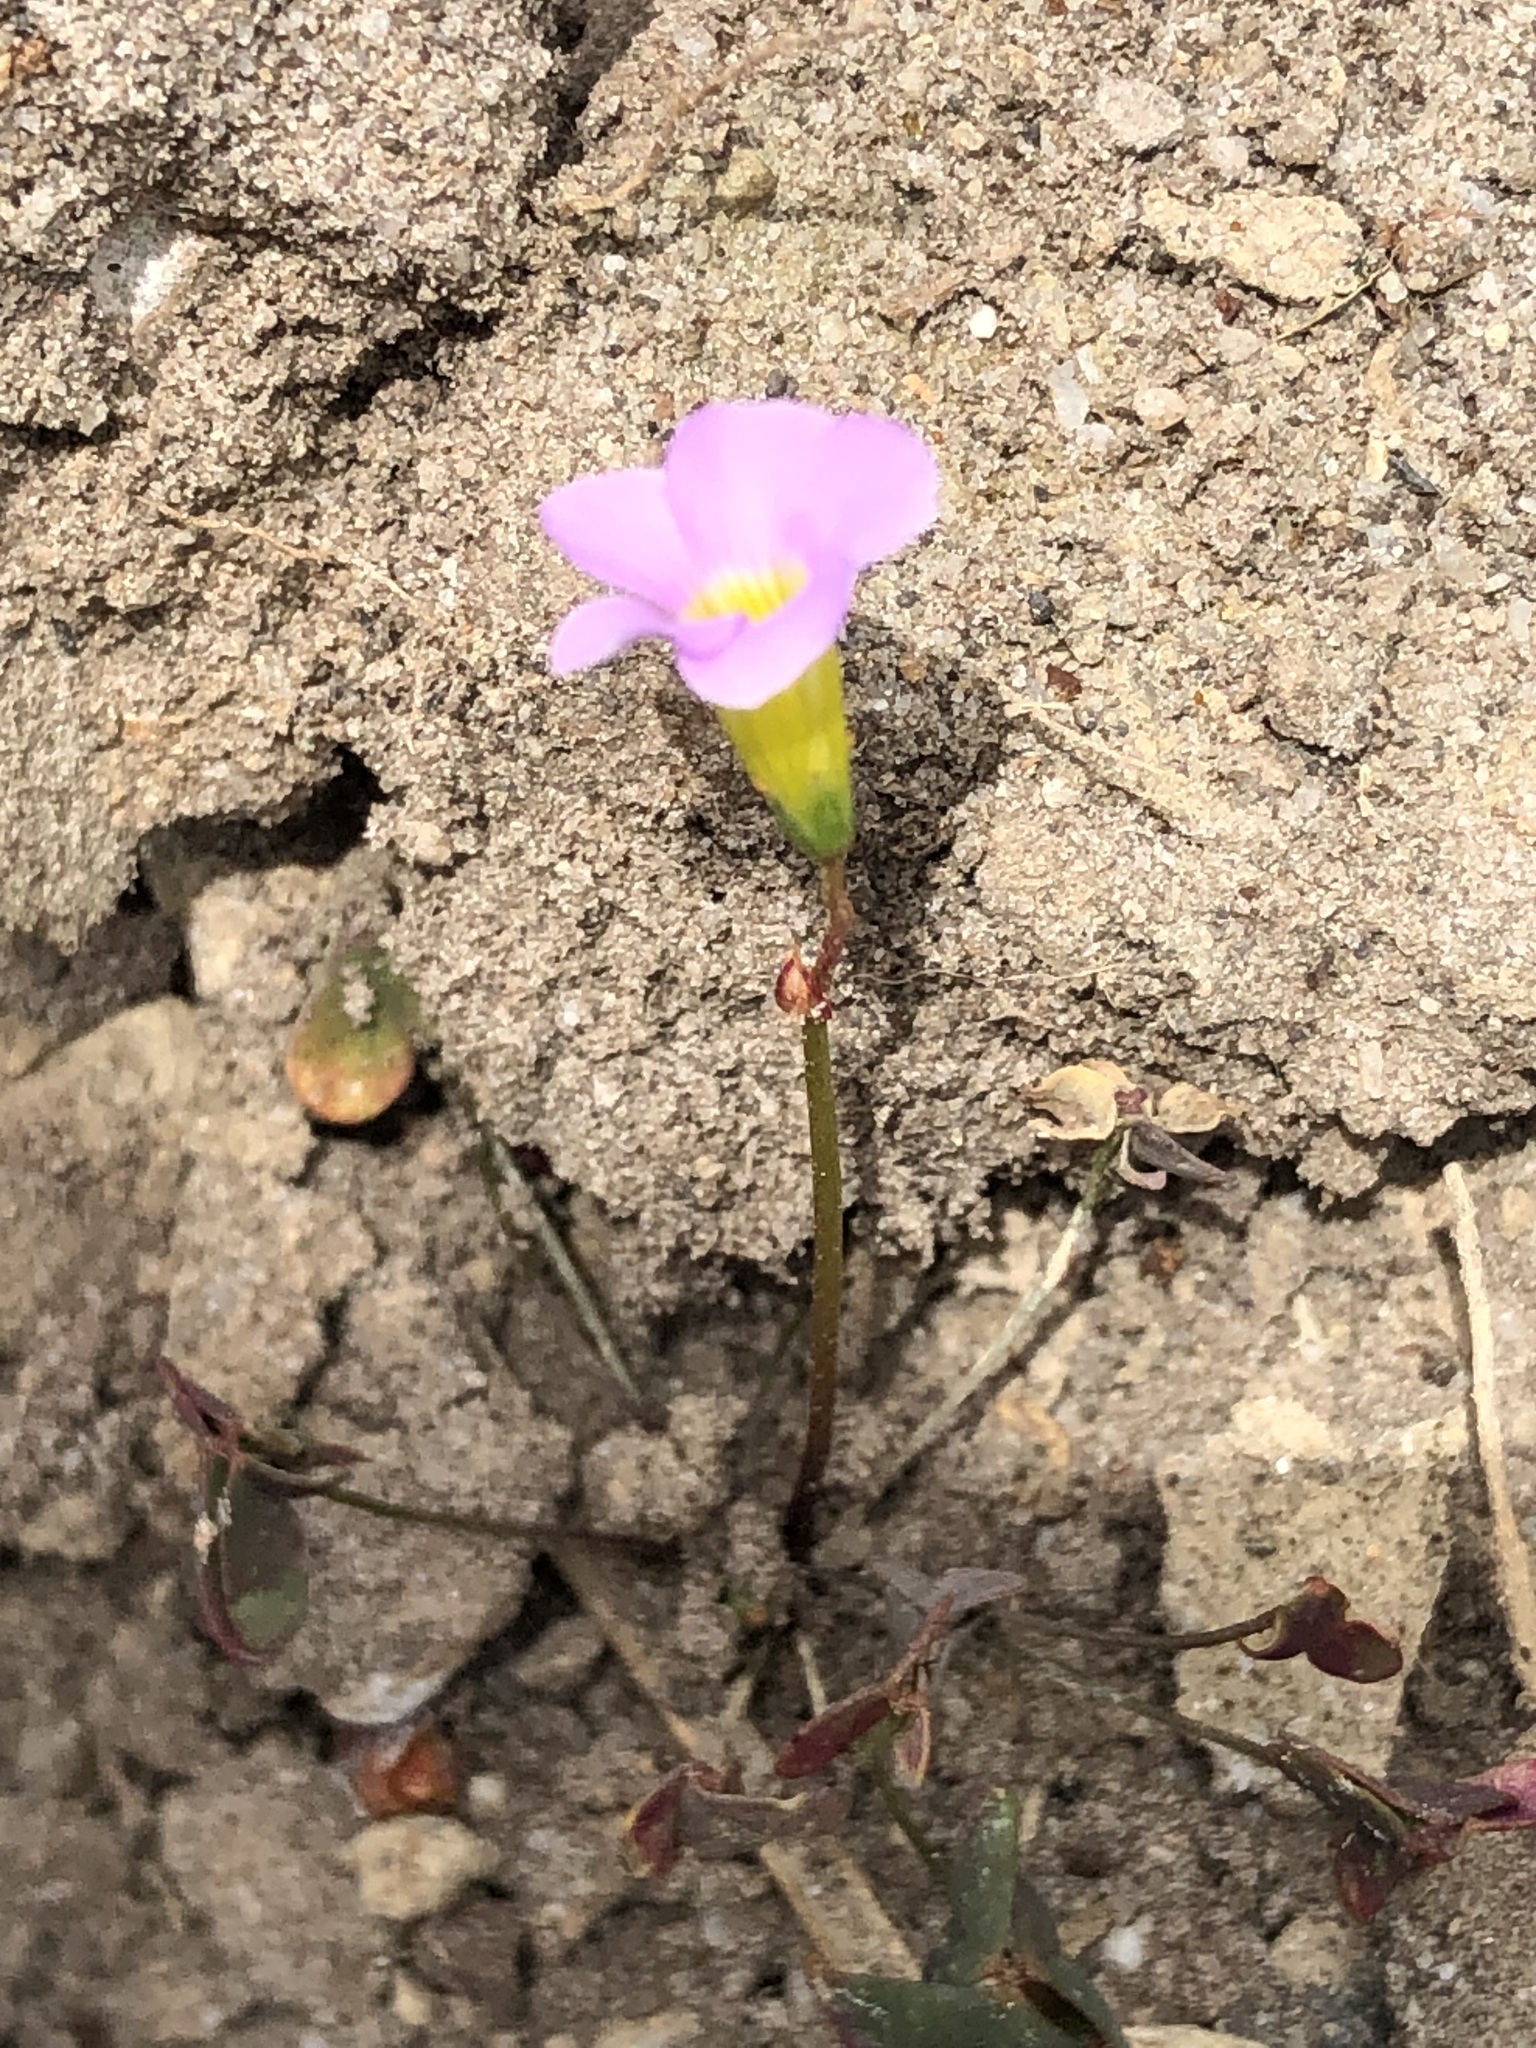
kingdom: Plantae
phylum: Tracheophyta
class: Magnoliopsida
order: Oxalidales
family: Oxalidaceae
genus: Oxalis
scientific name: Oxalis caprina
